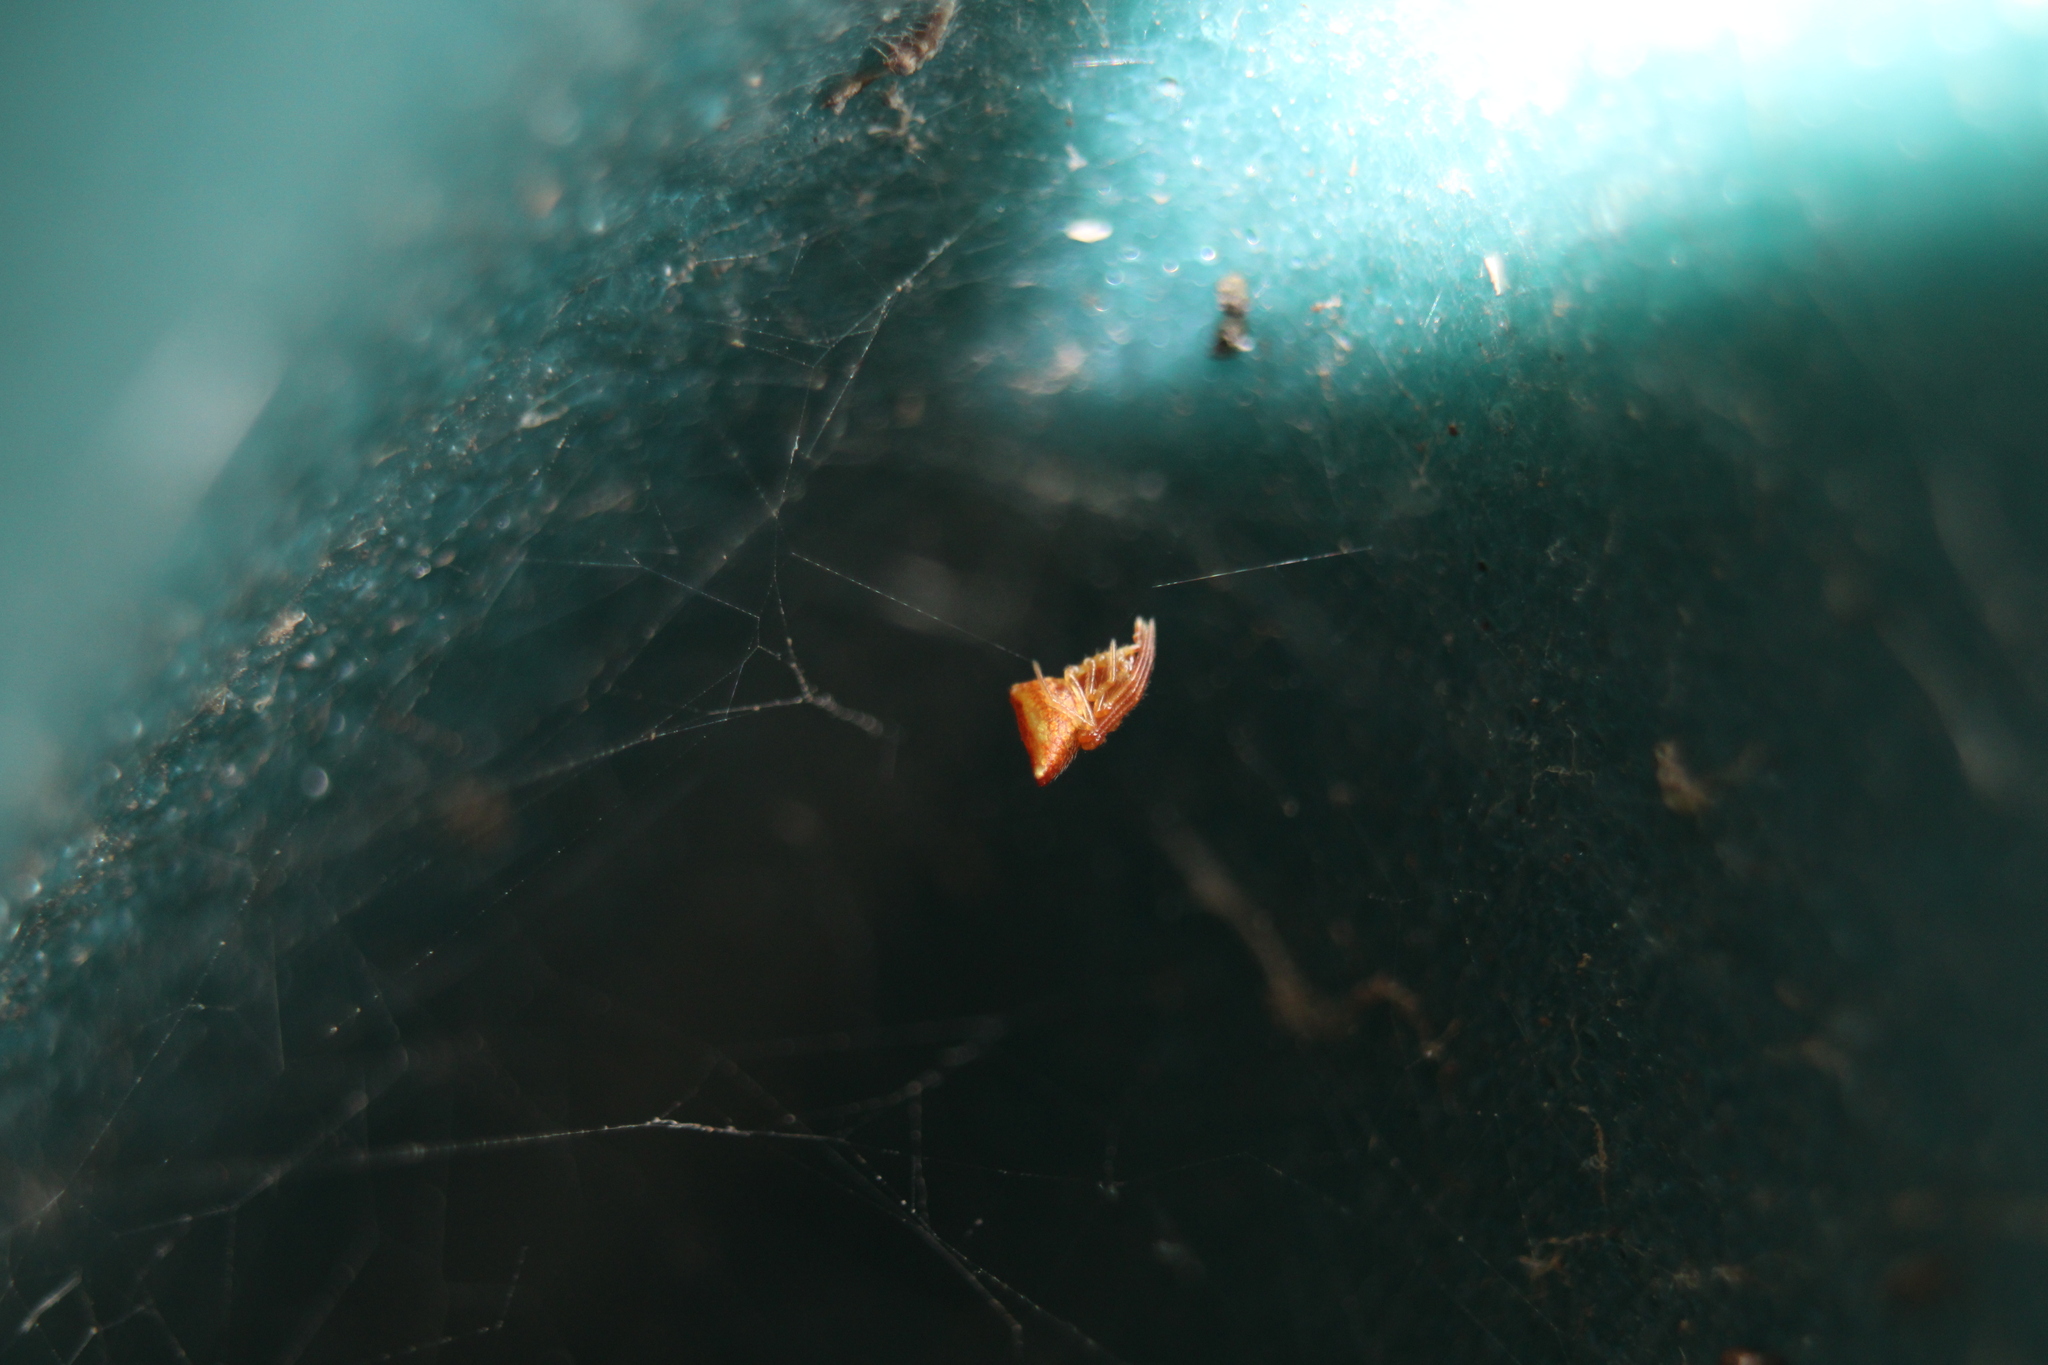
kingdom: Animalia
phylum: Arthropoda
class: Arachnida
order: Araneae
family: Theridiidae
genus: Neospintharus
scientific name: Neospintharus trigonum
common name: Horned parasitic cobweaver
